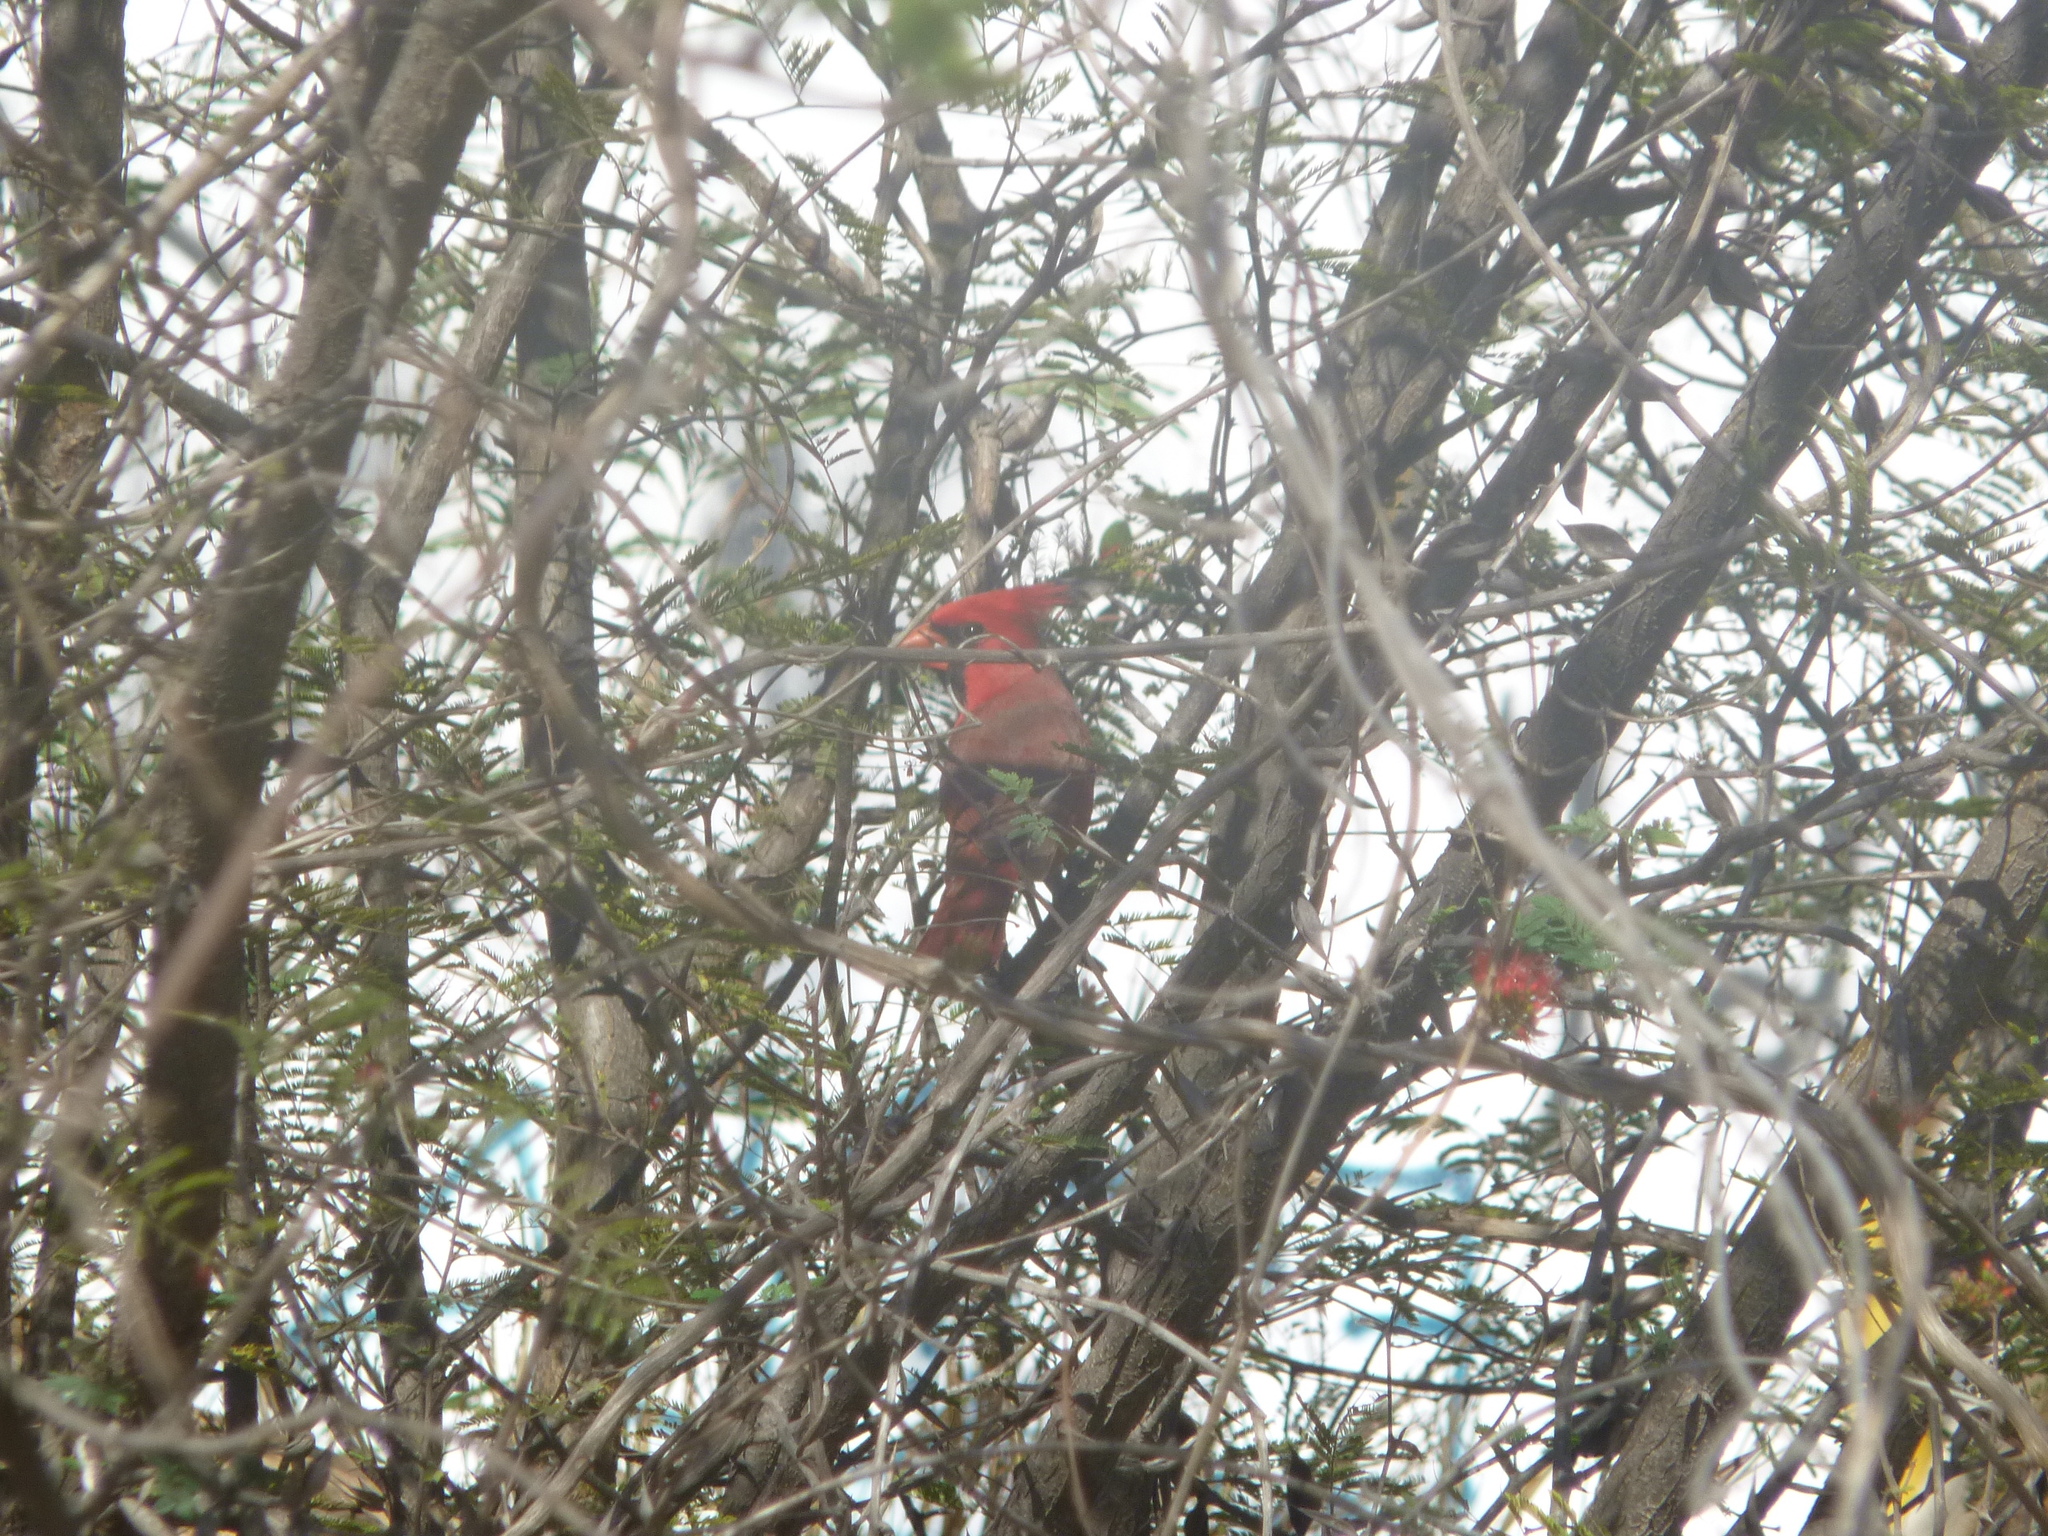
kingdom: Animalia
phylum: Chordata
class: Aves
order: Passeriformes
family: Cardinalidae
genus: Cardinalis
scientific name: Cardinalis cardinalis
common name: Northern cardinal
